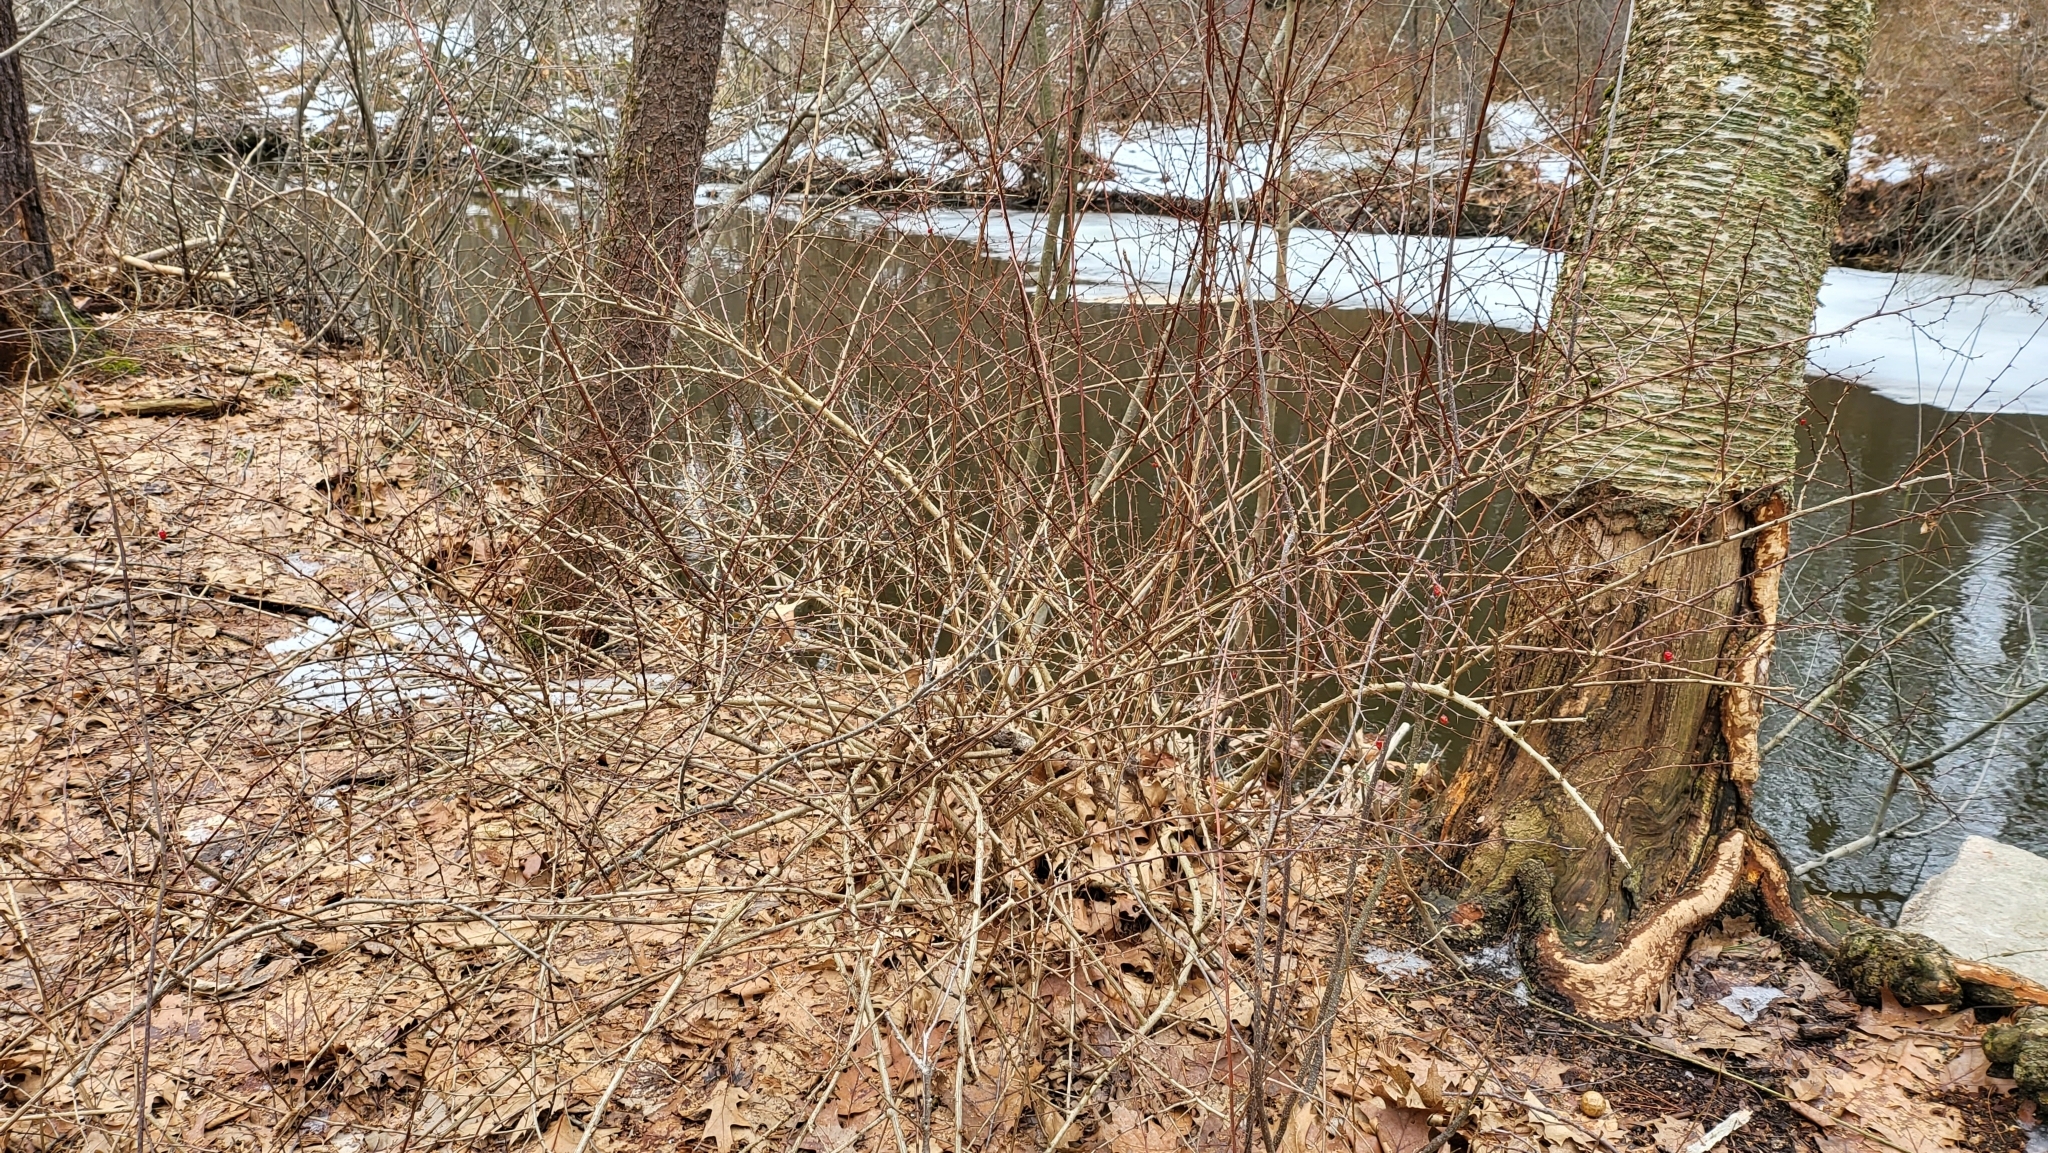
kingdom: Plantae
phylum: Tracheophyta
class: Magnoliopsida
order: Ranunculales
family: Berberidaceae
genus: Berberis
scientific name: Berberis thunbergii
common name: Japanese barberry
